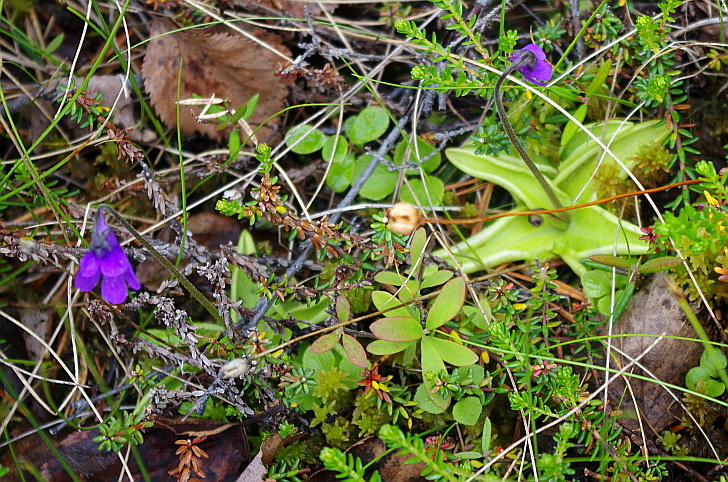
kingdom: Plantae
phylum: Tracheophyta
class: Magnoliopsida
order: Lamiales
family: Lentibulariaceae
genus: Pinguicula
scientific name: Pinguicula vulgaris
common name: Common butterwort
